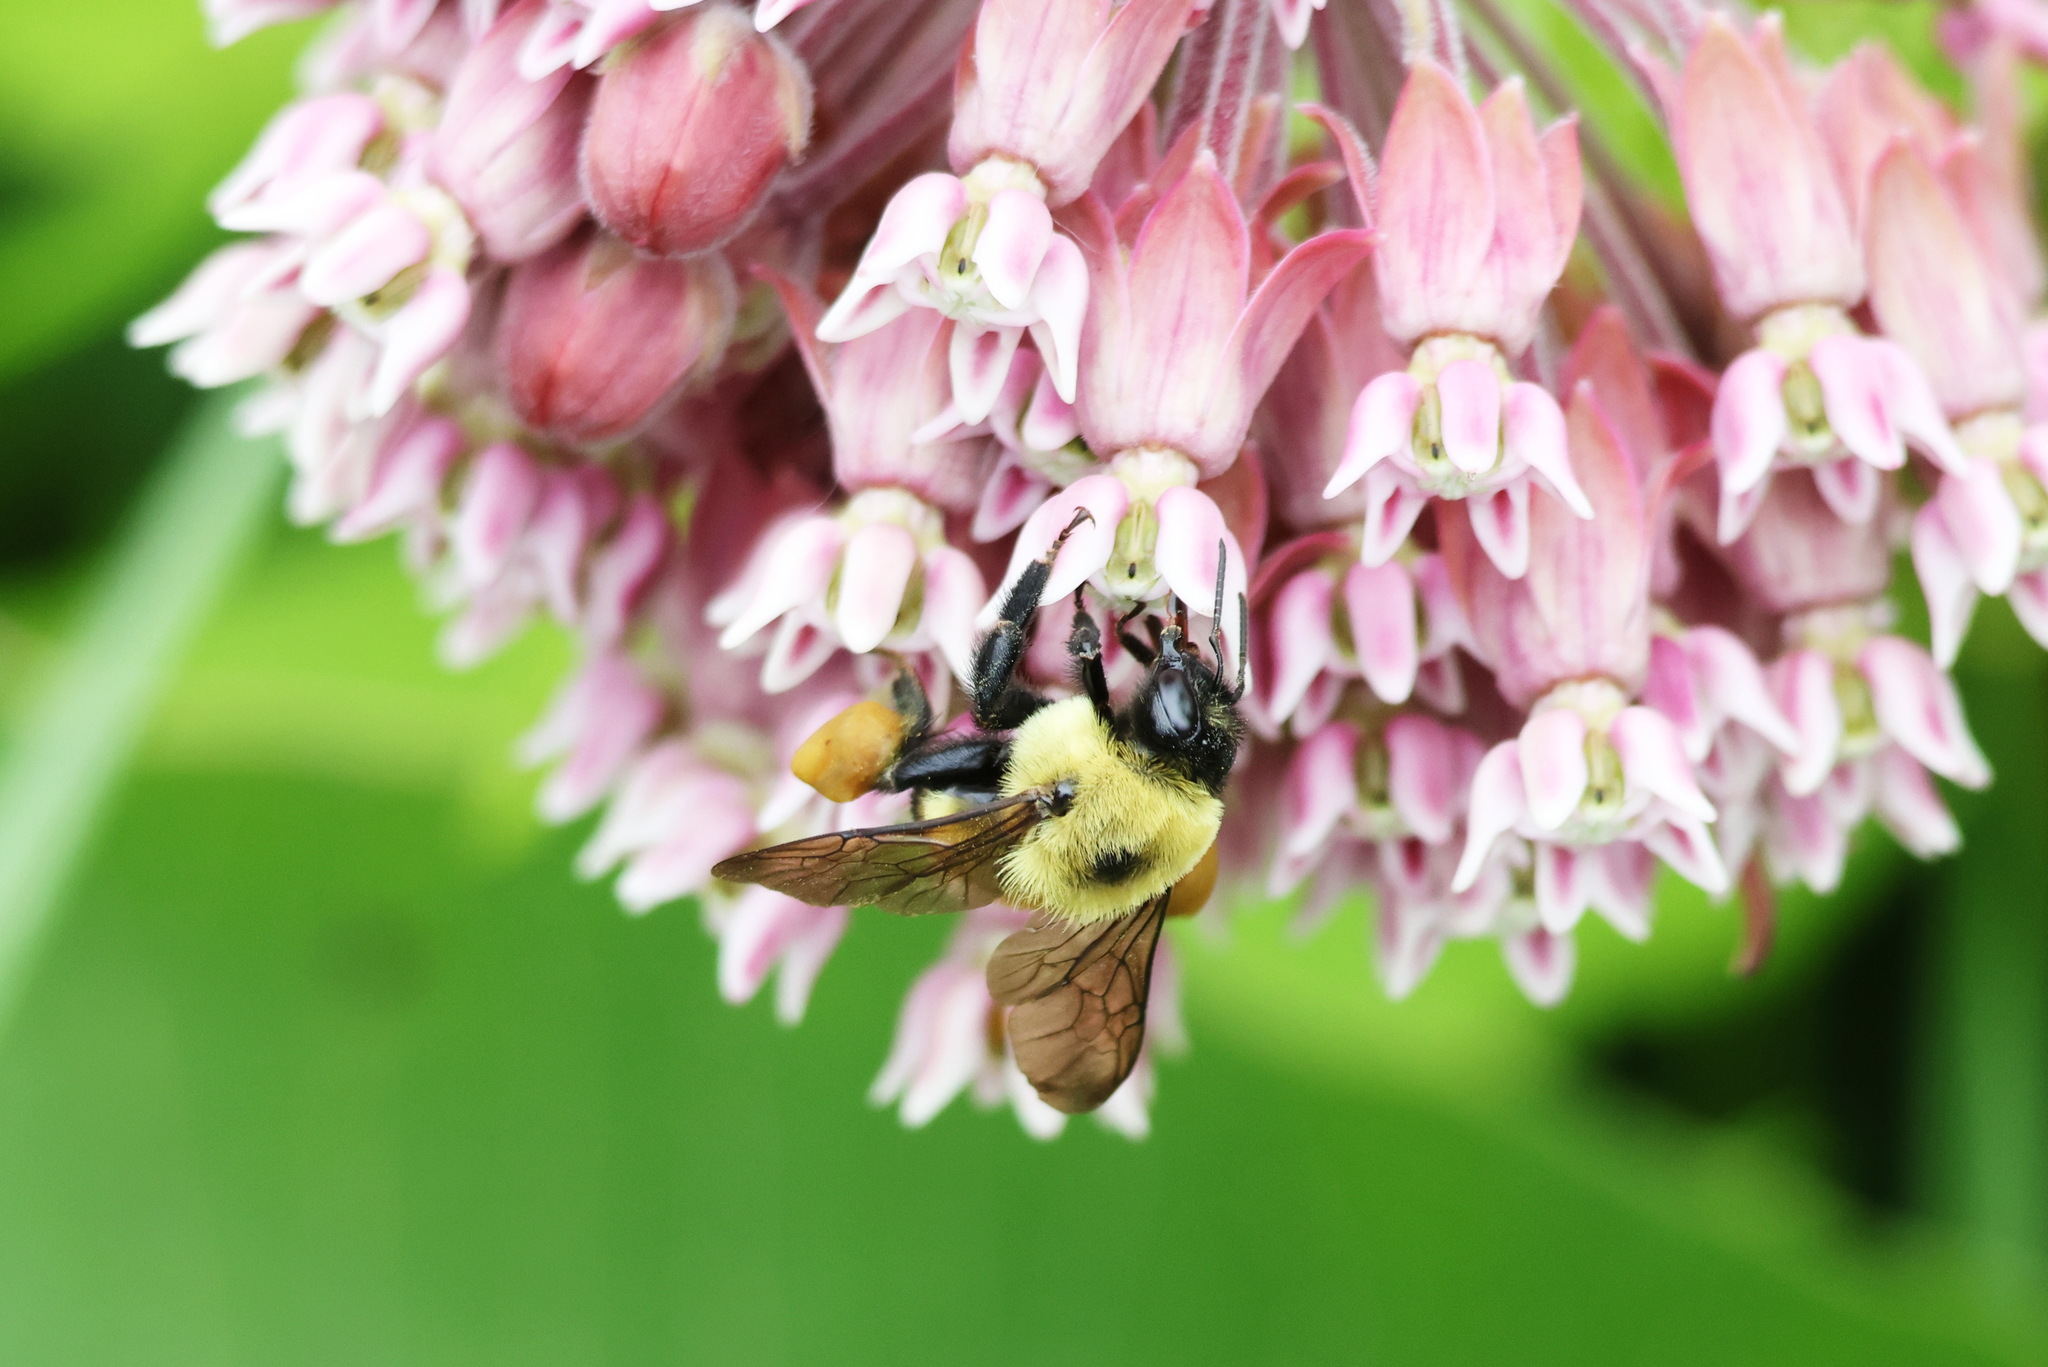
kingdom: Animalia
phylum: Arthropoda
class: Insecta
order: Hymenoptera
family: Apidae
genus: Bombus
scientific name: Bombus griseocollis
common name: Brown-belted bumble bee
